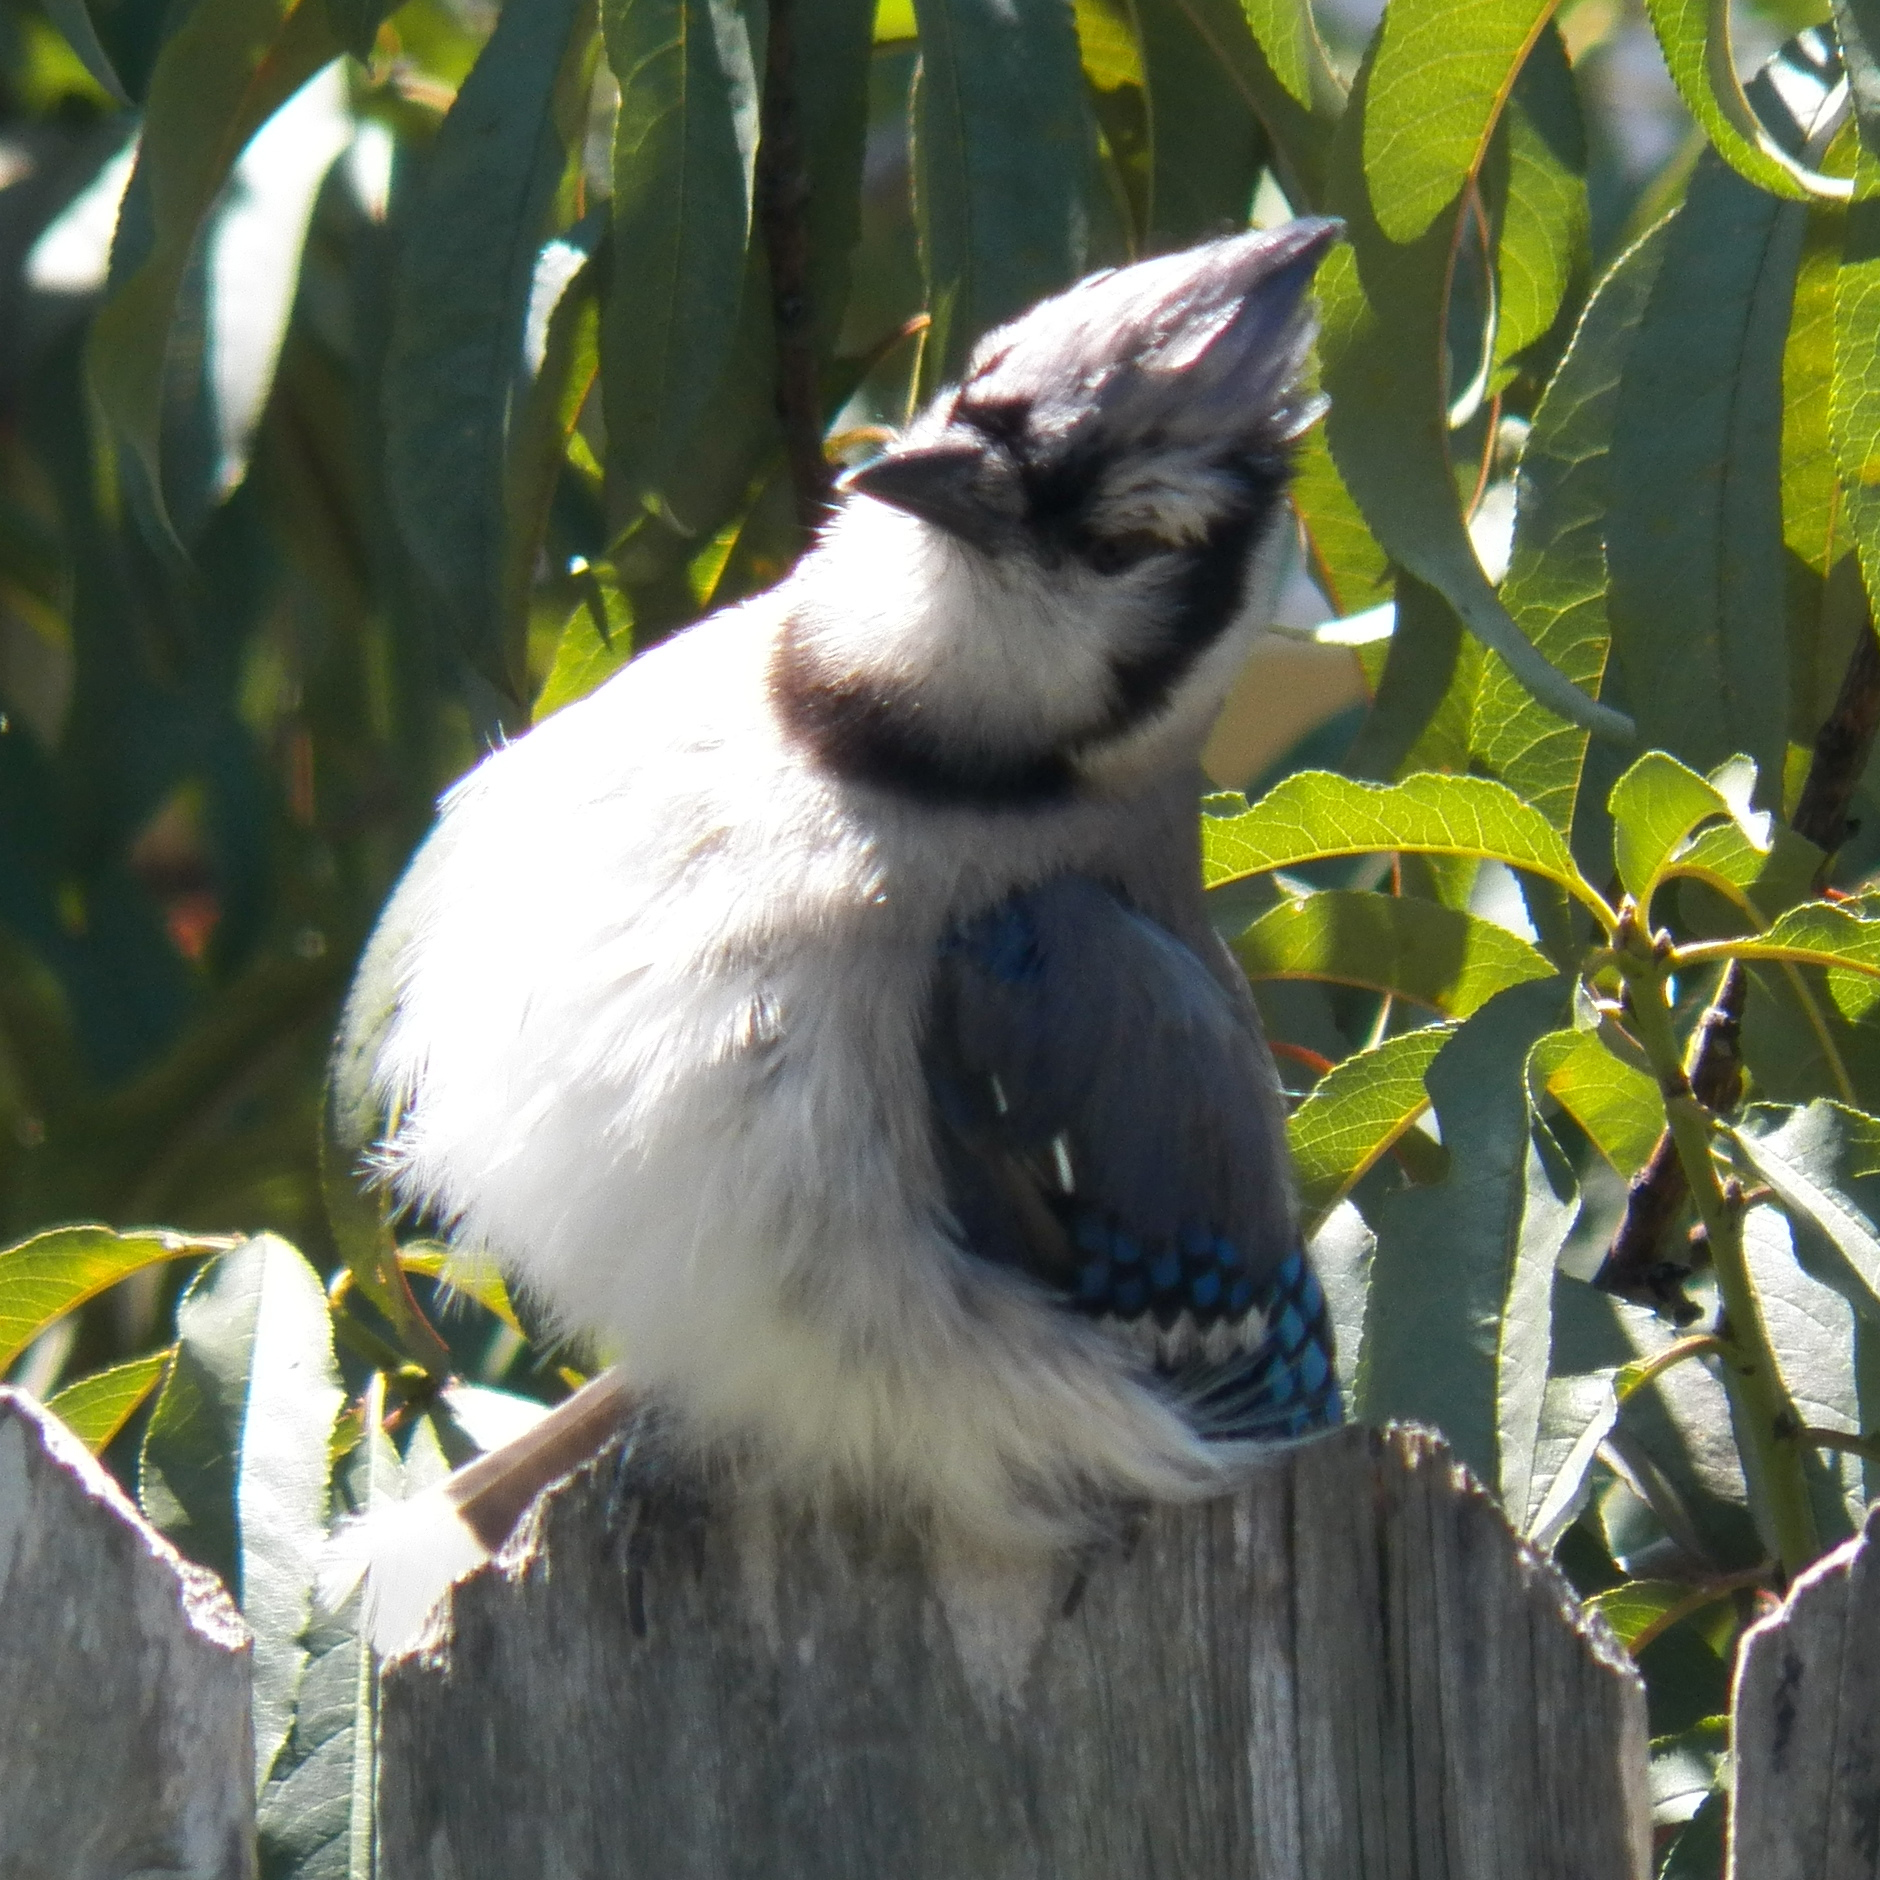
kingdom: Animalia
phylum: Chordata
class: Aves
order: Passeriformes
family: Corvidae
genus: Cyanocitta
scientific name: Cyanocitta cristata
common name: Blue jay
